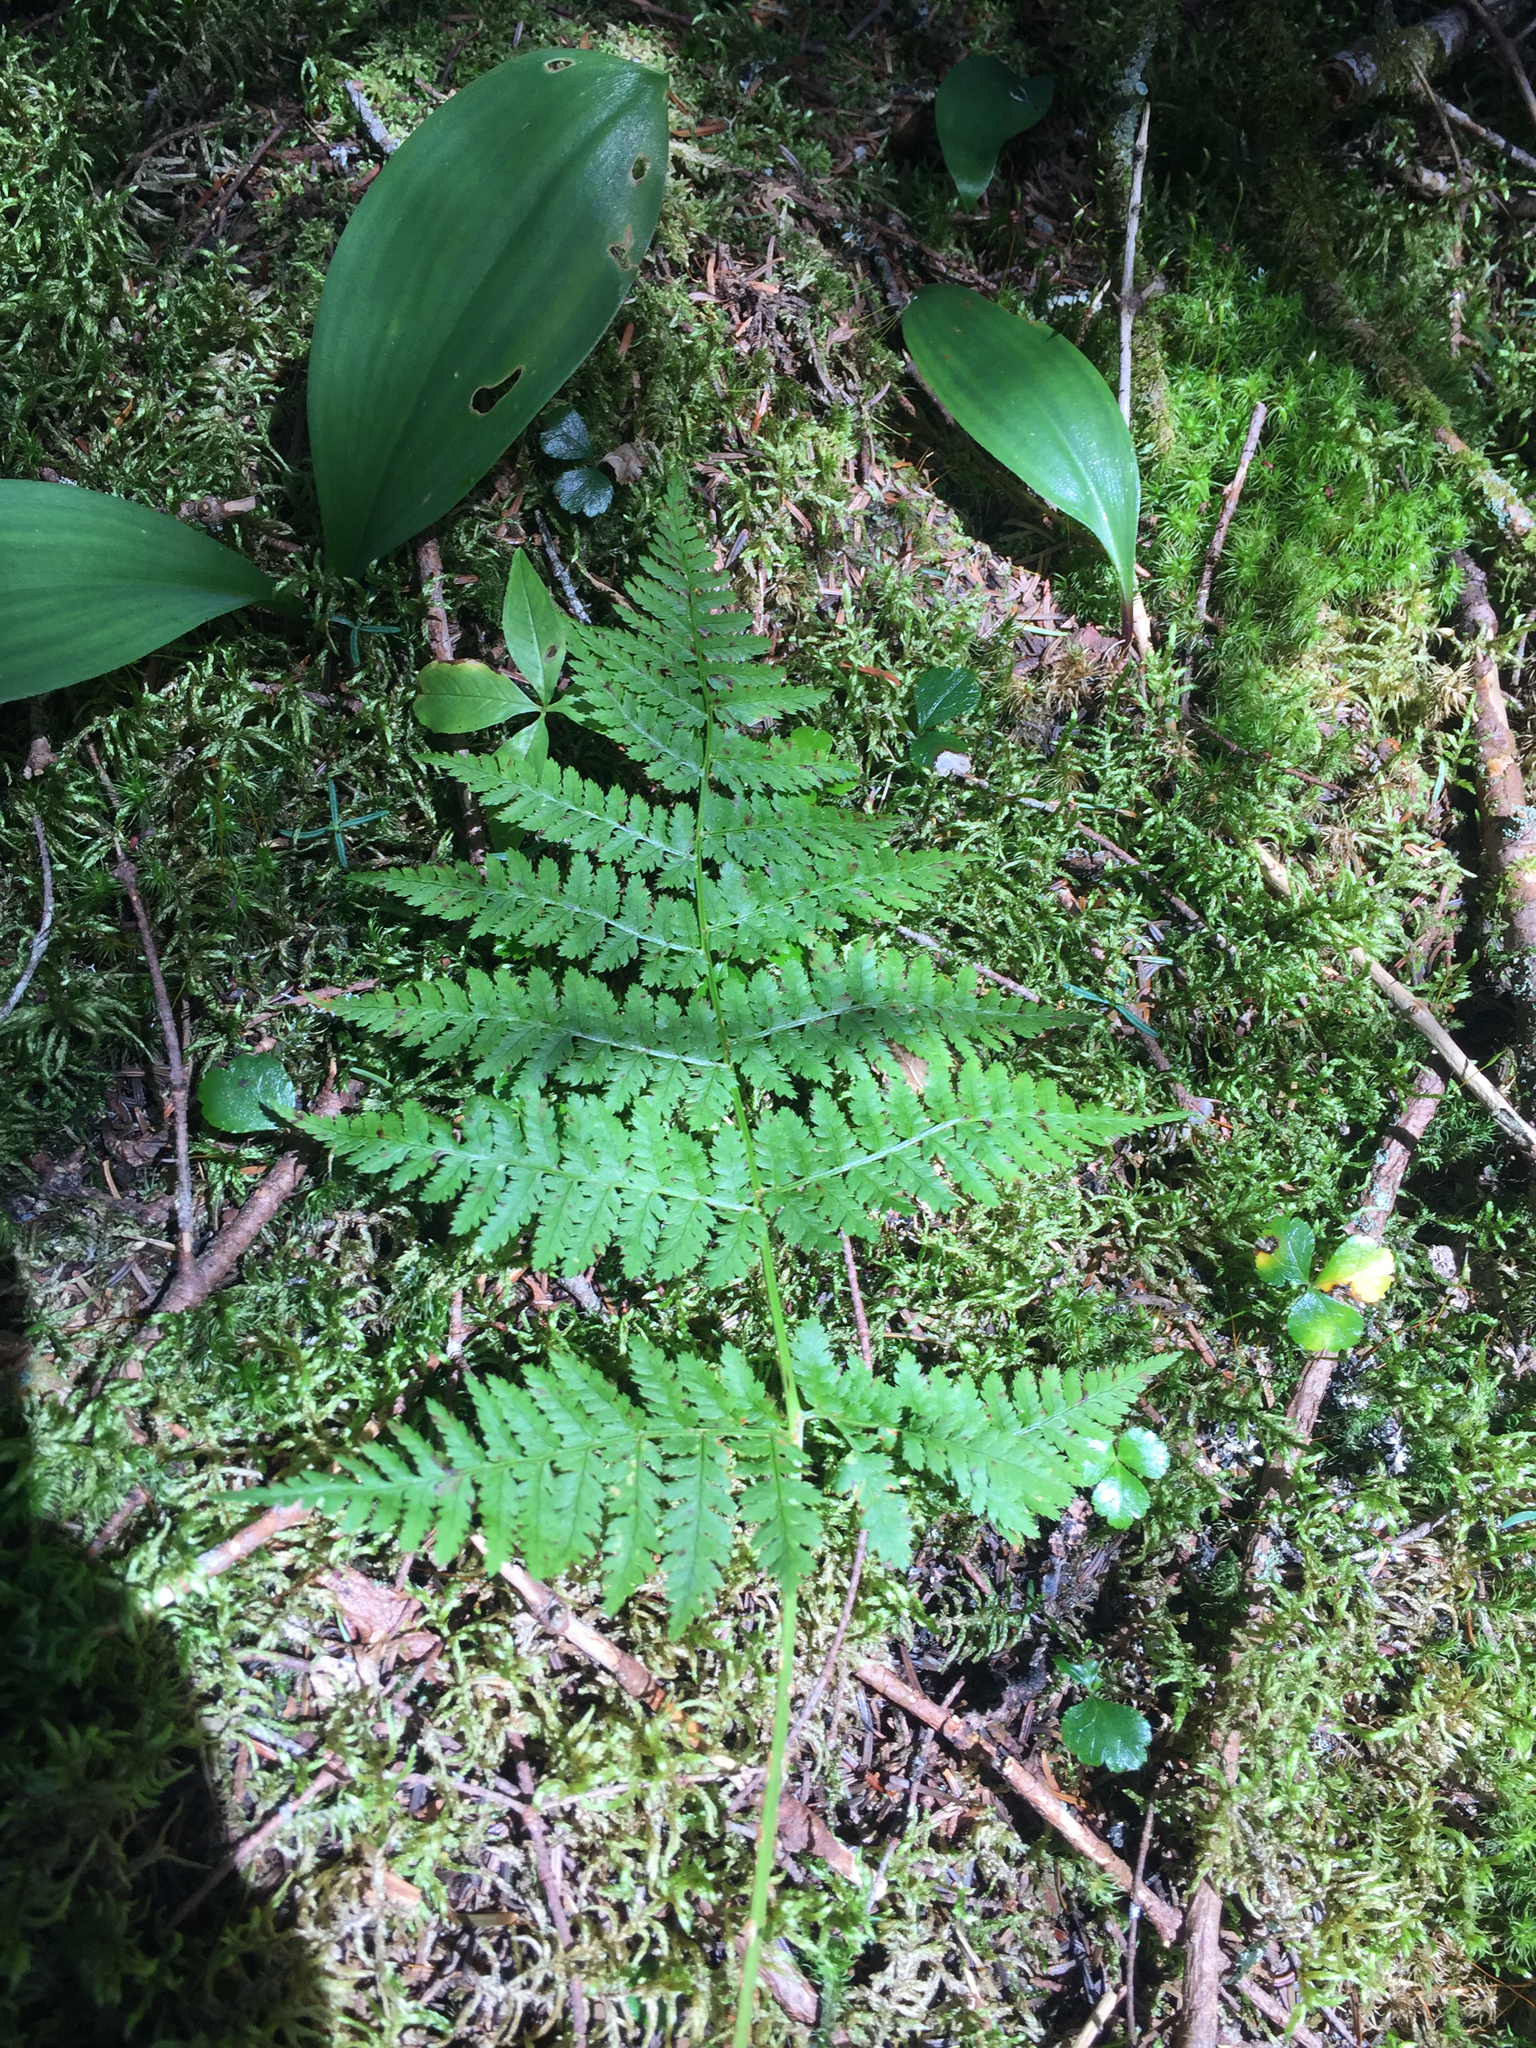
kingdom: Plantae
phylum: Tracheophyta
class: Polypodiopsida
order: Polypodiales
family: Dryopteridaceae
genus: Dryopteris
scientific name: Dryopteris campyloptera
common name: Mountain wood fern
